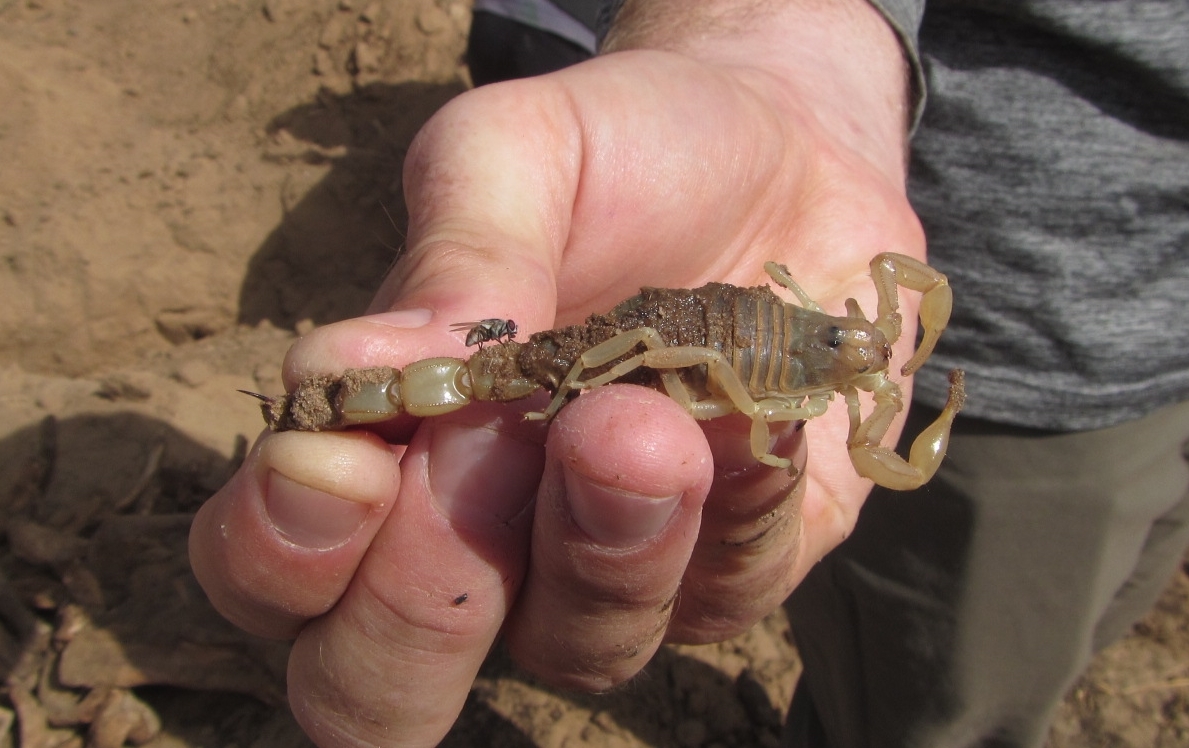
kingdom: Animalia
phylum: Arthropoda
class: Arachnida
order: Scorpiones
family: Buthidae
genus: Androctonus
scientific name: Androctonus dekeyseri
